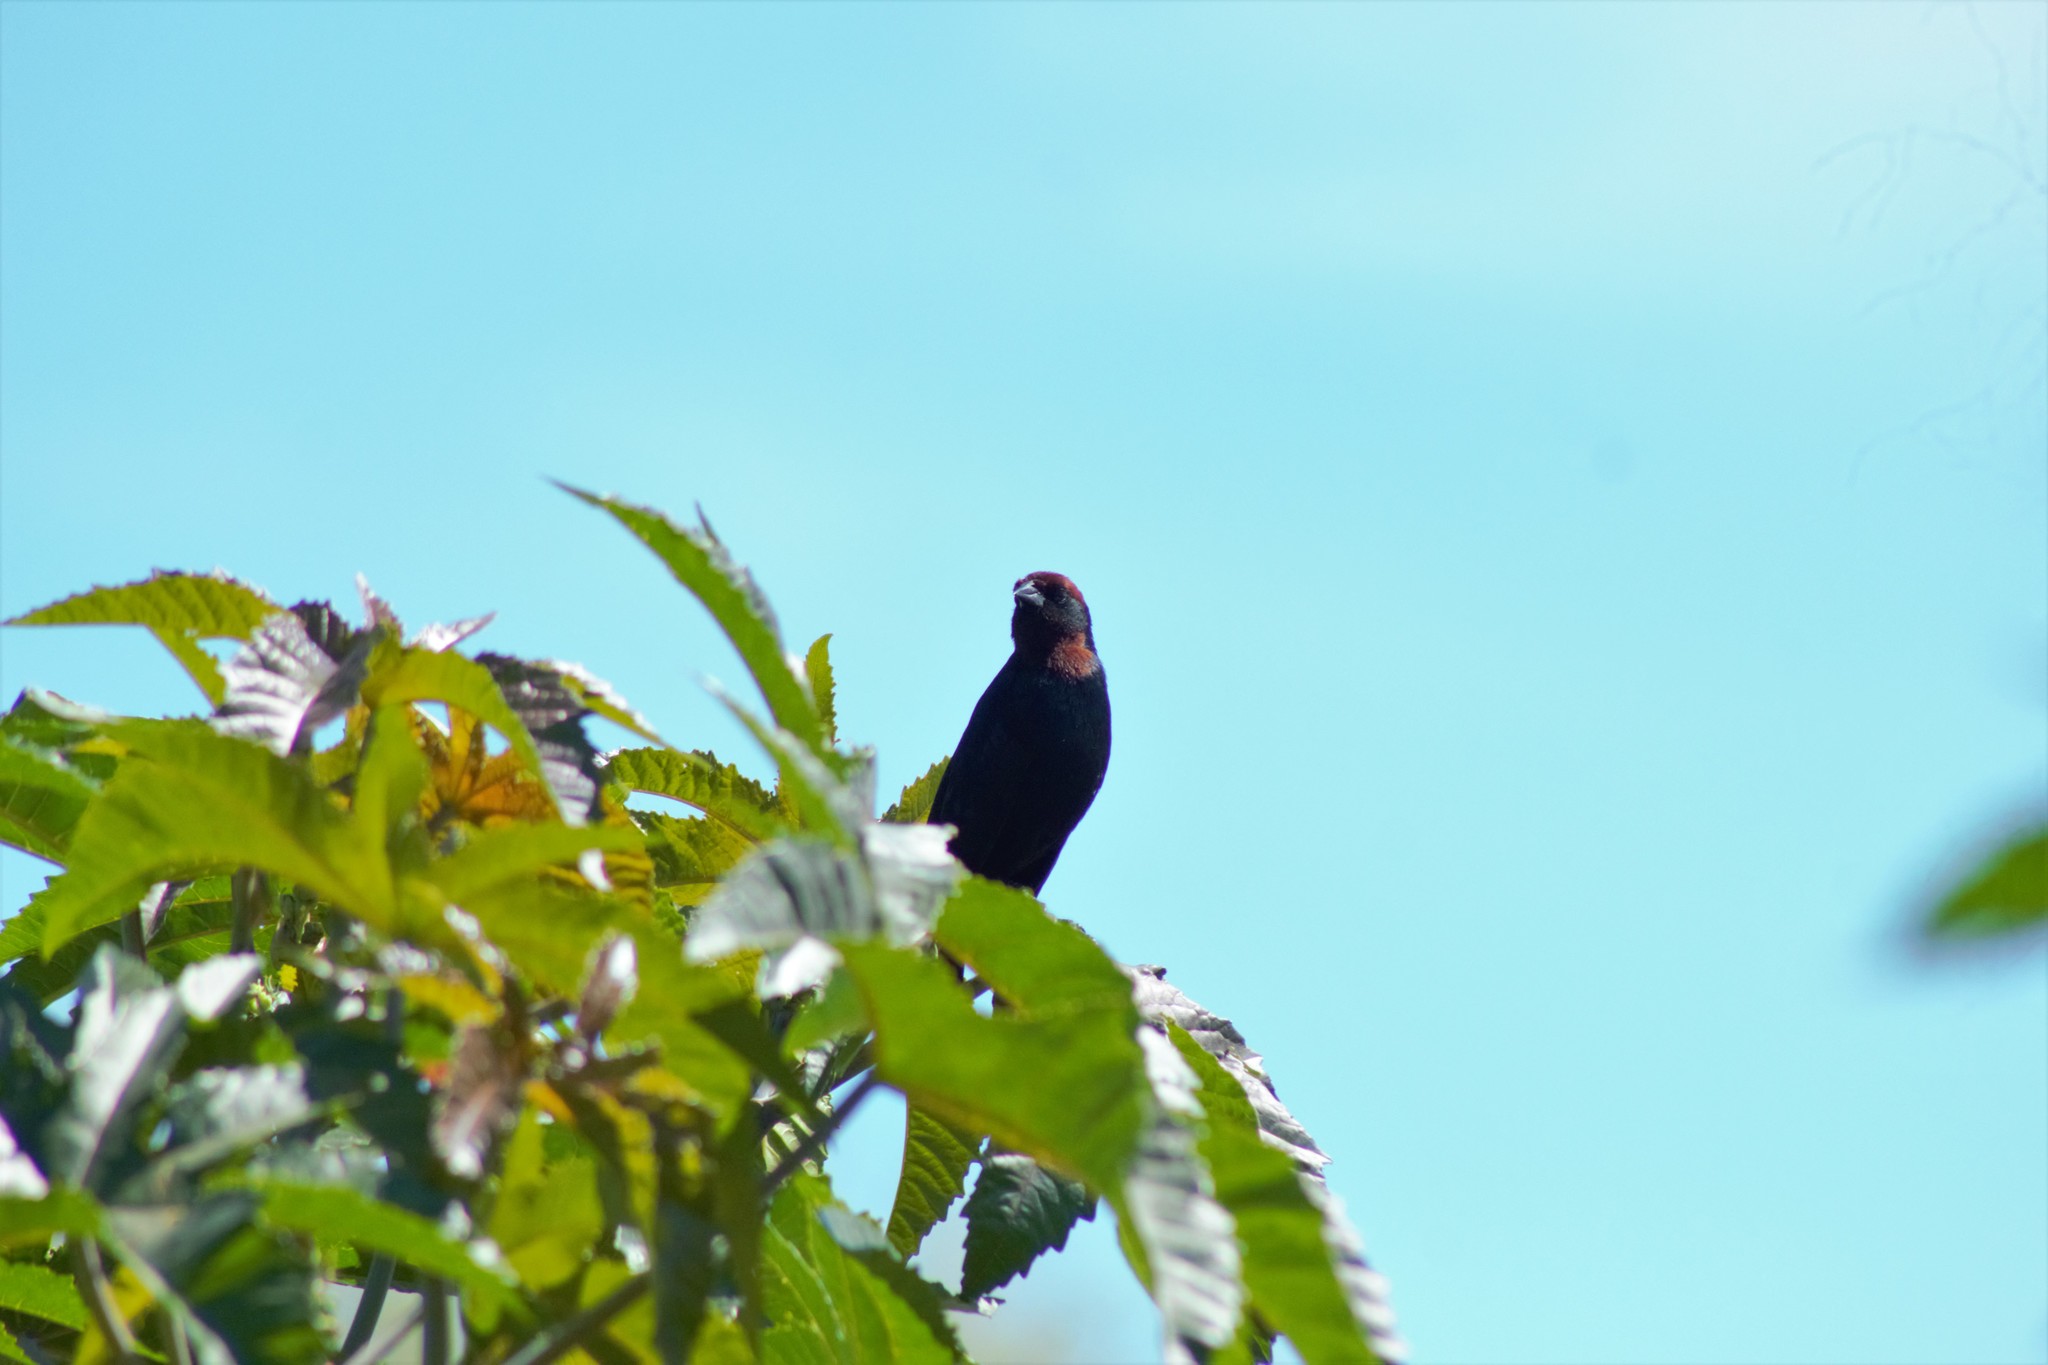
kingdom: Animalia
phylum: Chordata
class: Aves
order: Passeriformes
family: Icteridae
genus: Chrysomus
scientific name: Chrysomus ruficapillus
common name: Chestnut-capped blackbird
